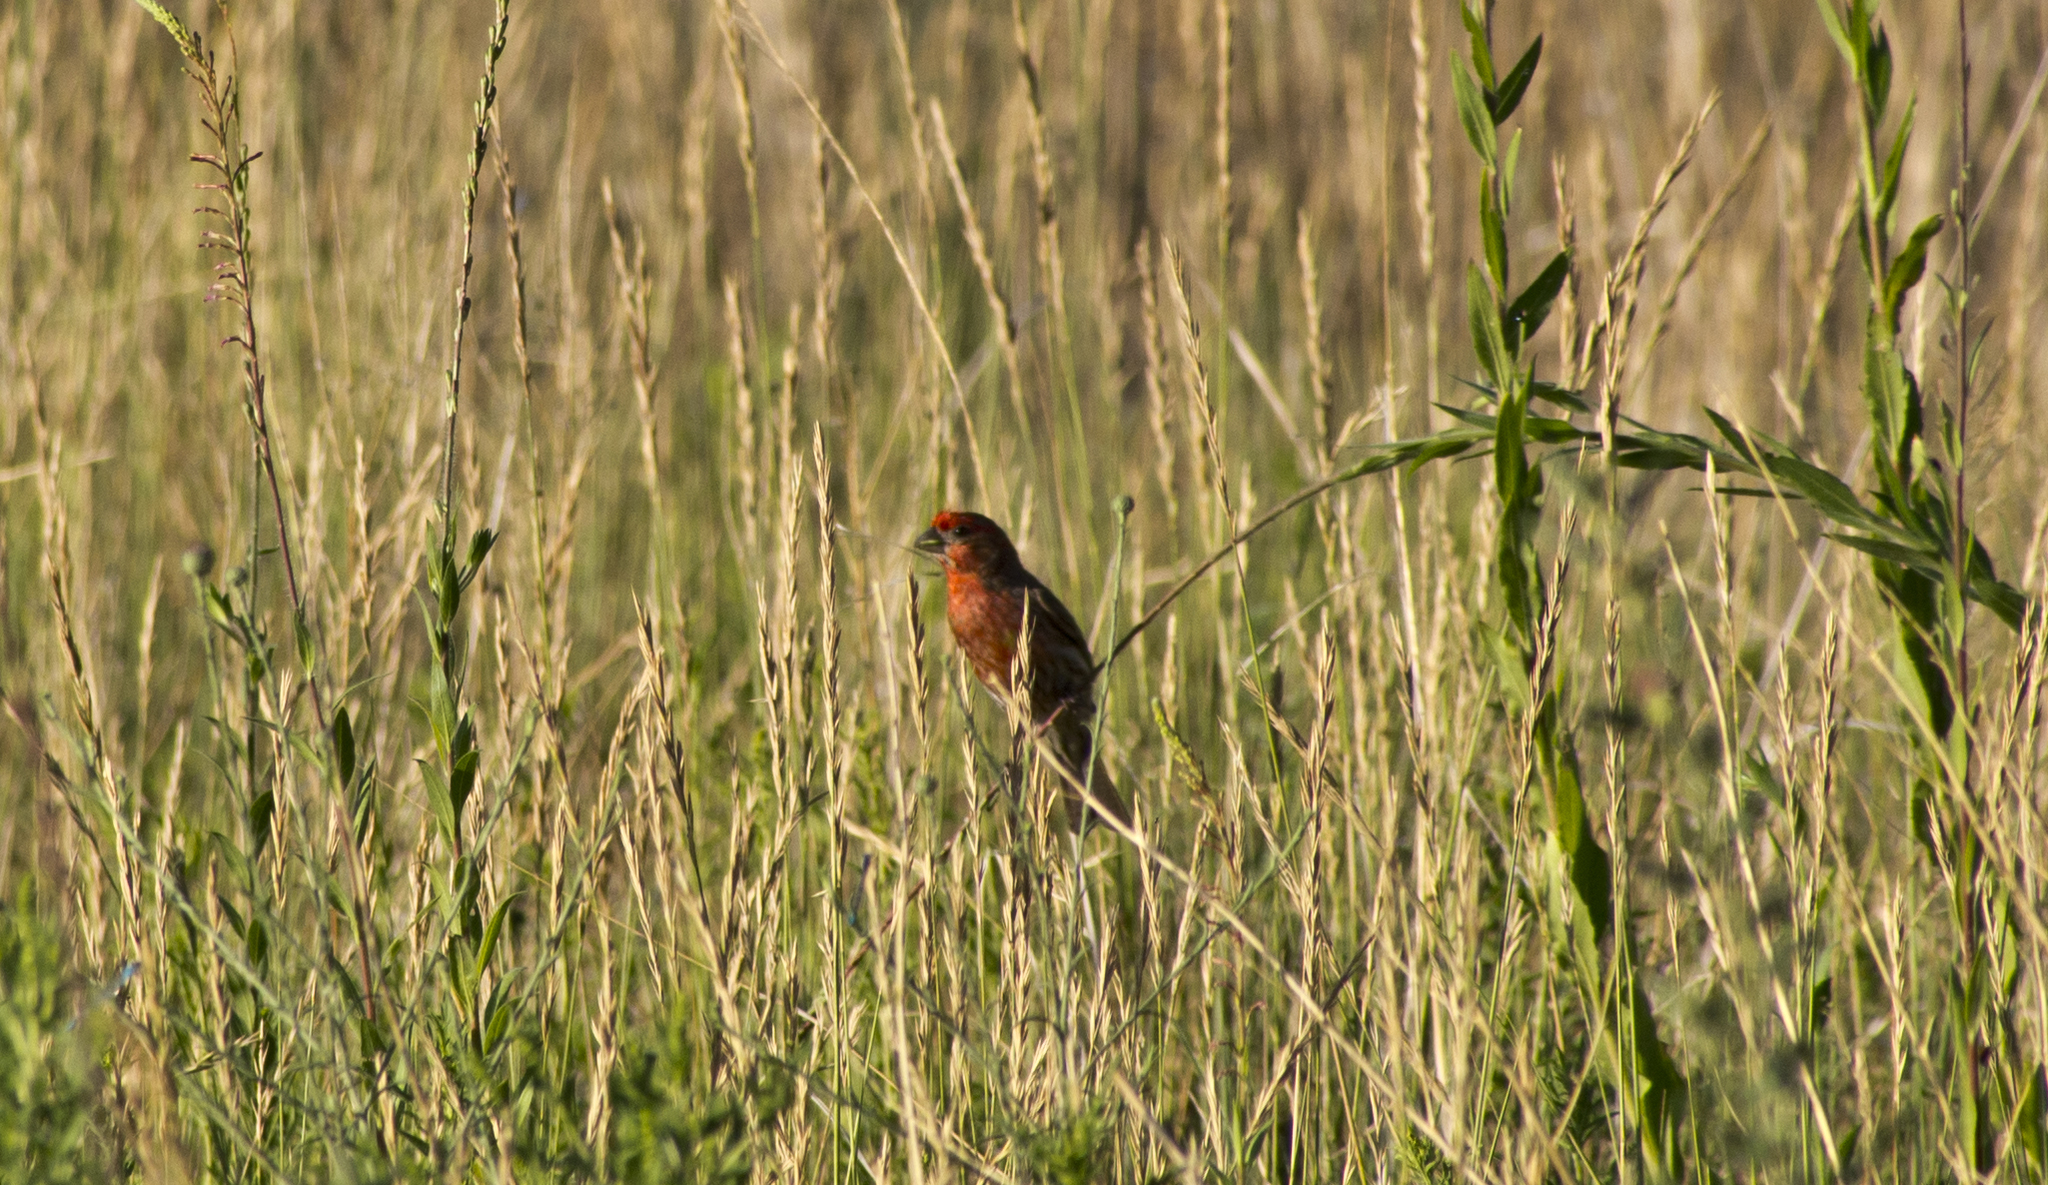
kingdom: Animalia
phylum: Chordata
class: Aves
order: Passeriformes
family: Fringillidae
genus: Haemorhous
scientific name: Haemorhous mexicanus
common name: House finch
